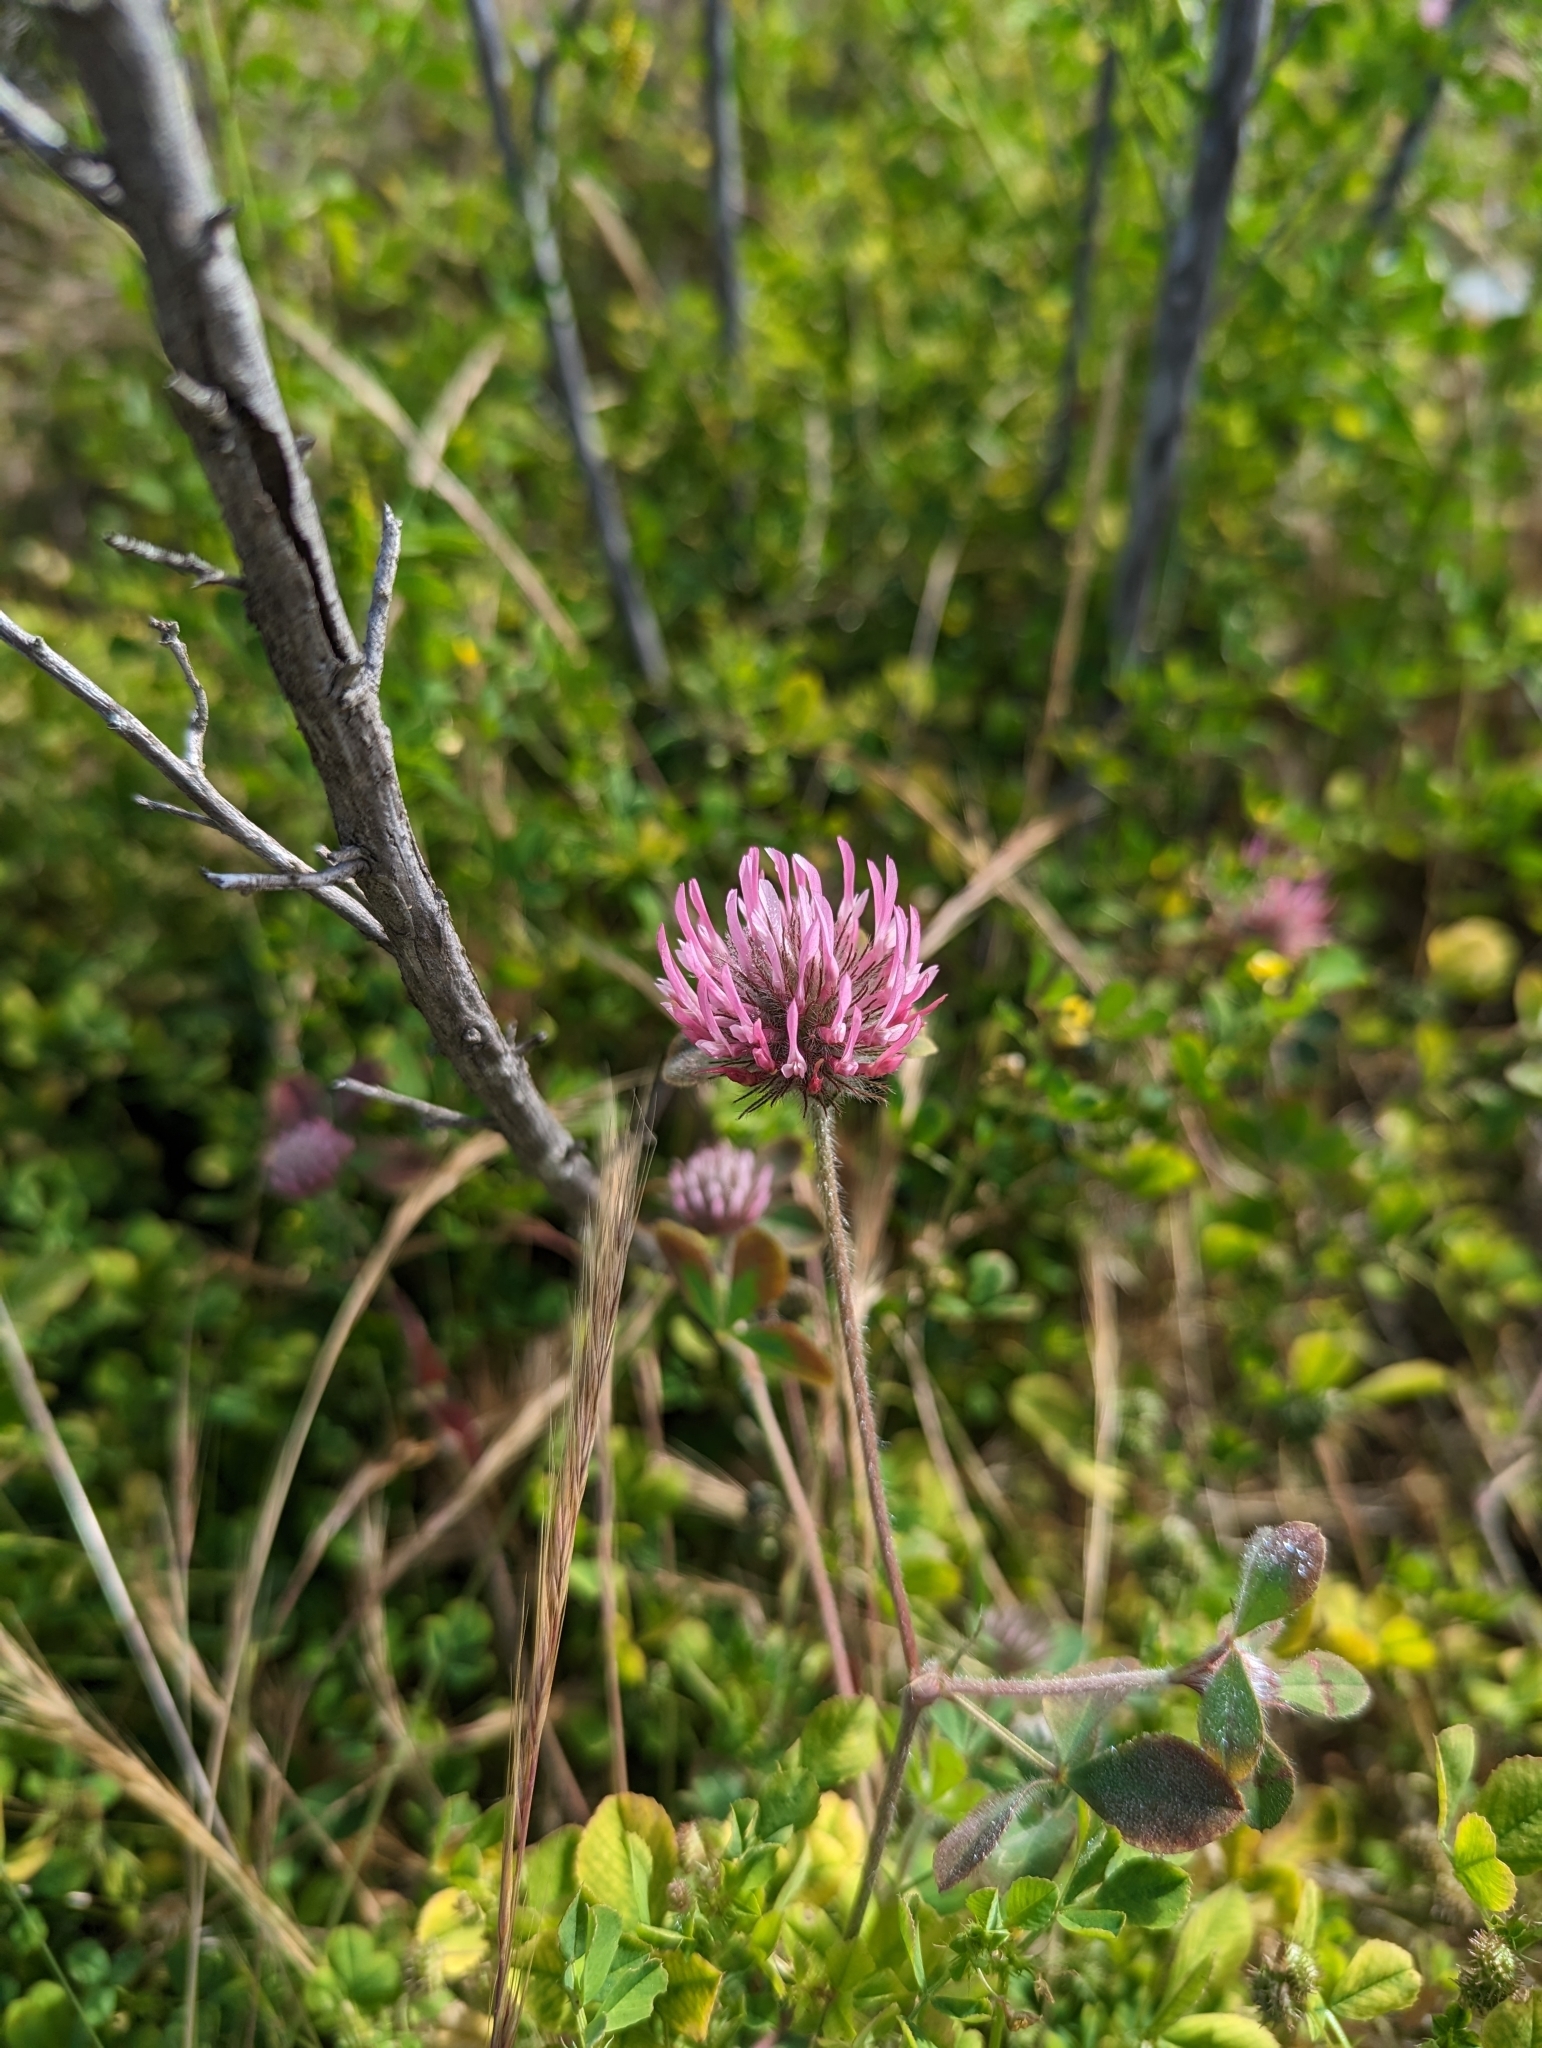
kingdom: Plantae
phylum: Tracheophyta
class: Magnoliopsida
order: Fabales
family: Fabaceae
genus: Trifolium
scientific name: Trifolium hirtum
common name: Rose clover
